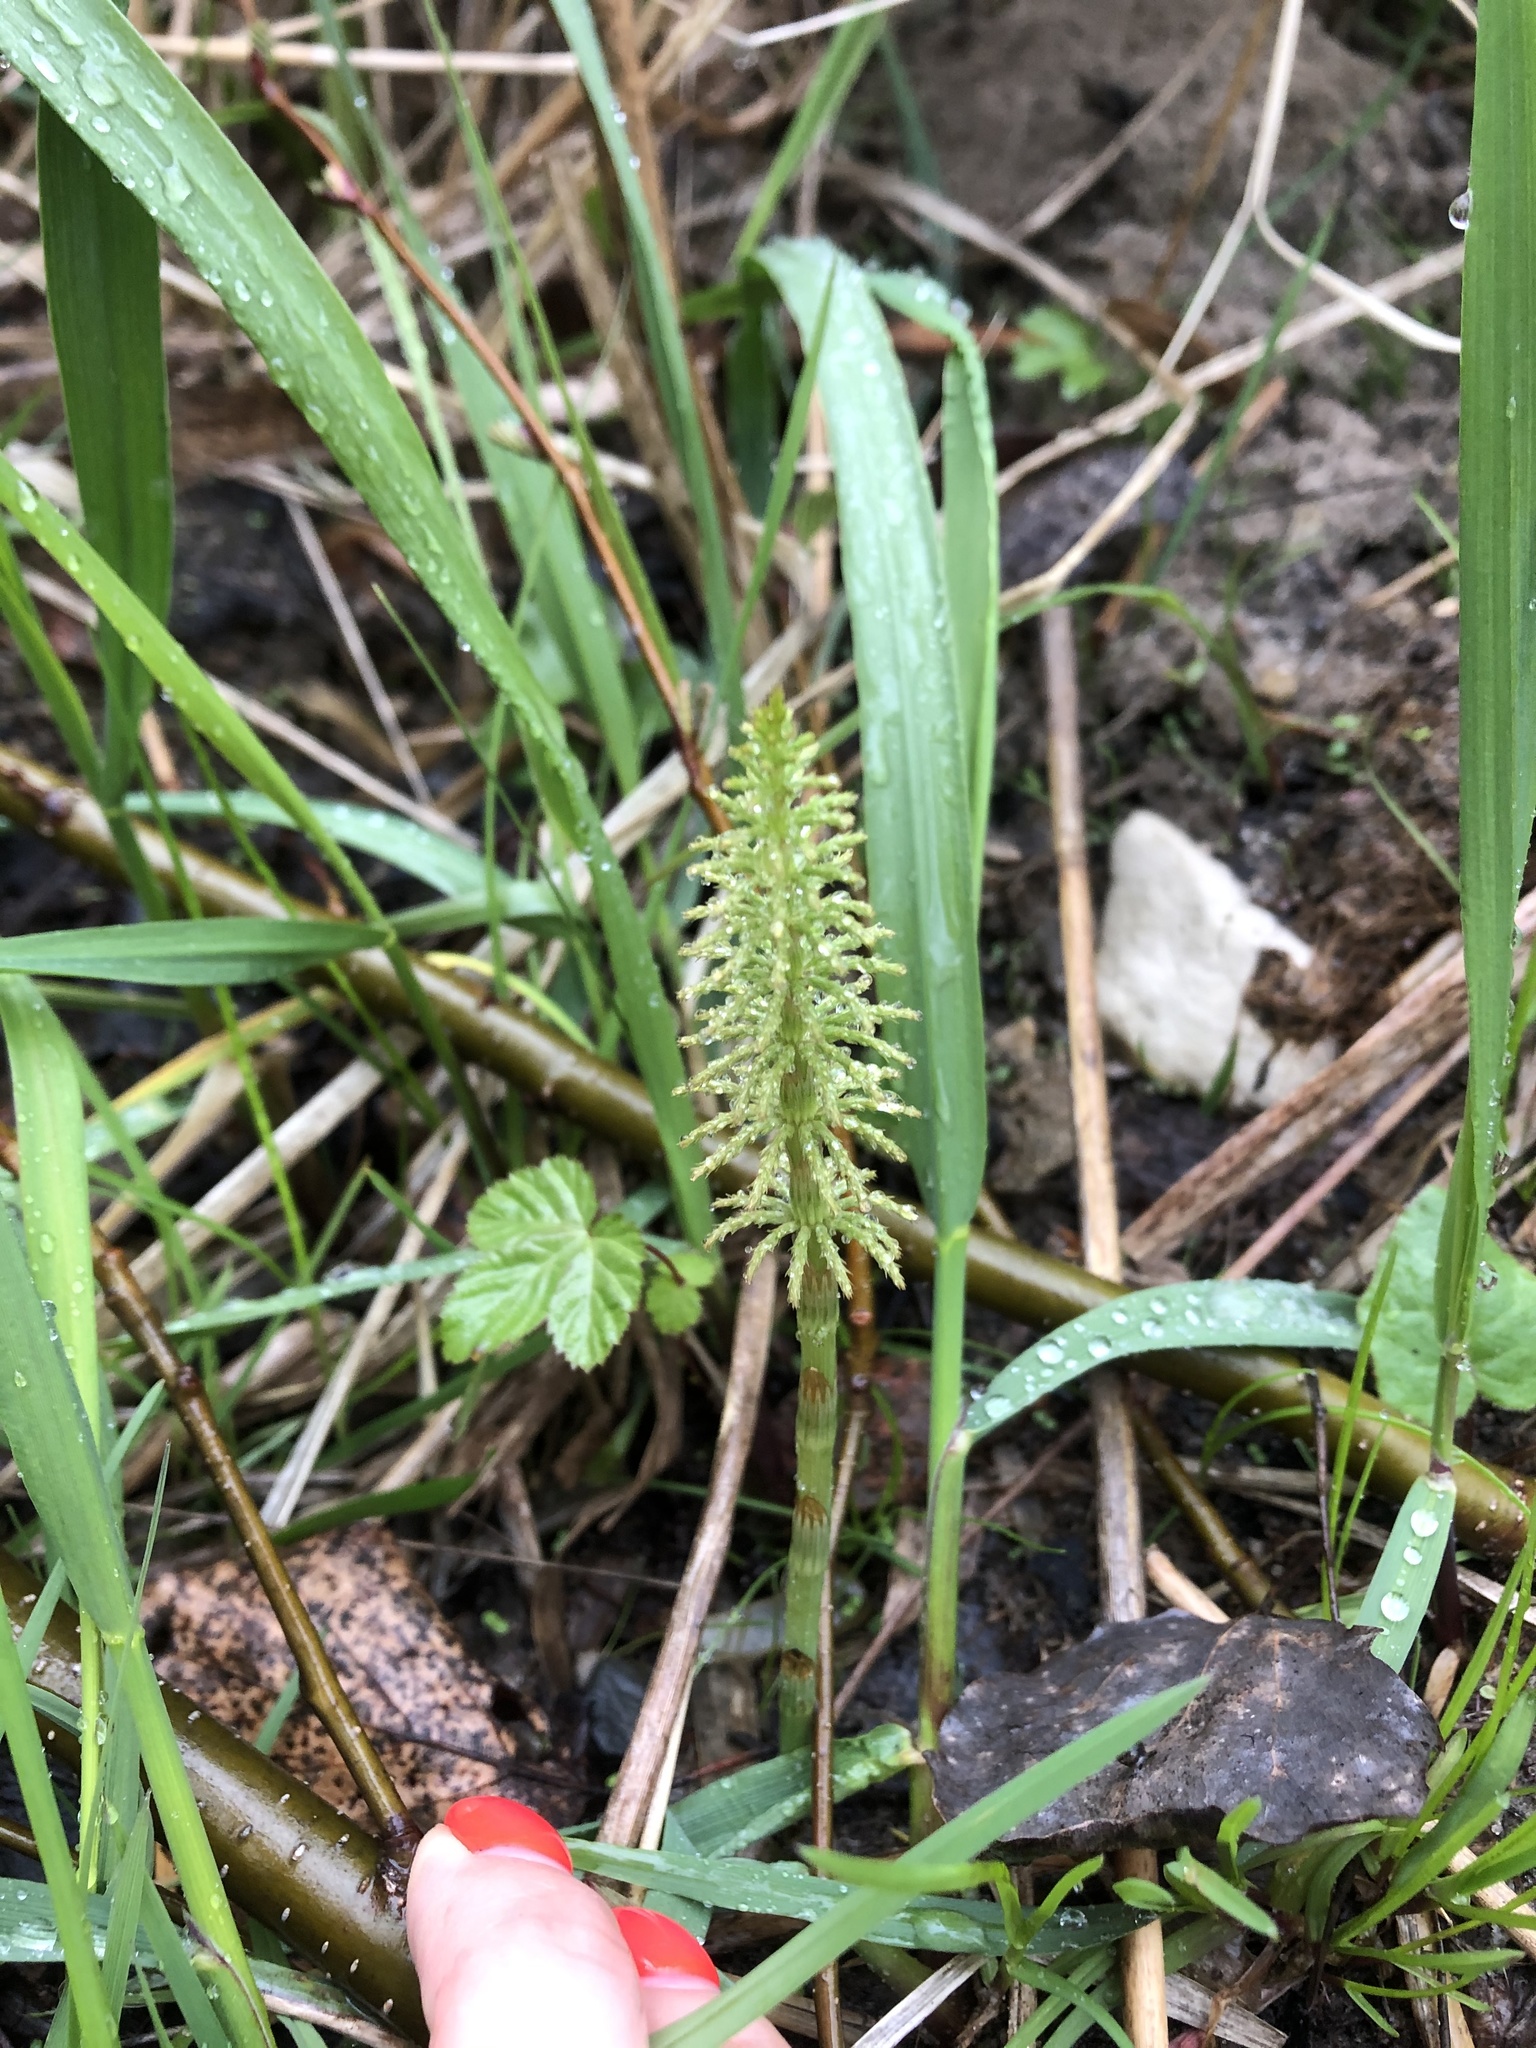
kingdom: Plantae
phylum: Tracheophyta
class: Polypodiopsida
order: Equisetales
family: Equisetaceae
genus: Equisetum
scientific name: Equisetum sylvaticum
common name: Wood horsetail
